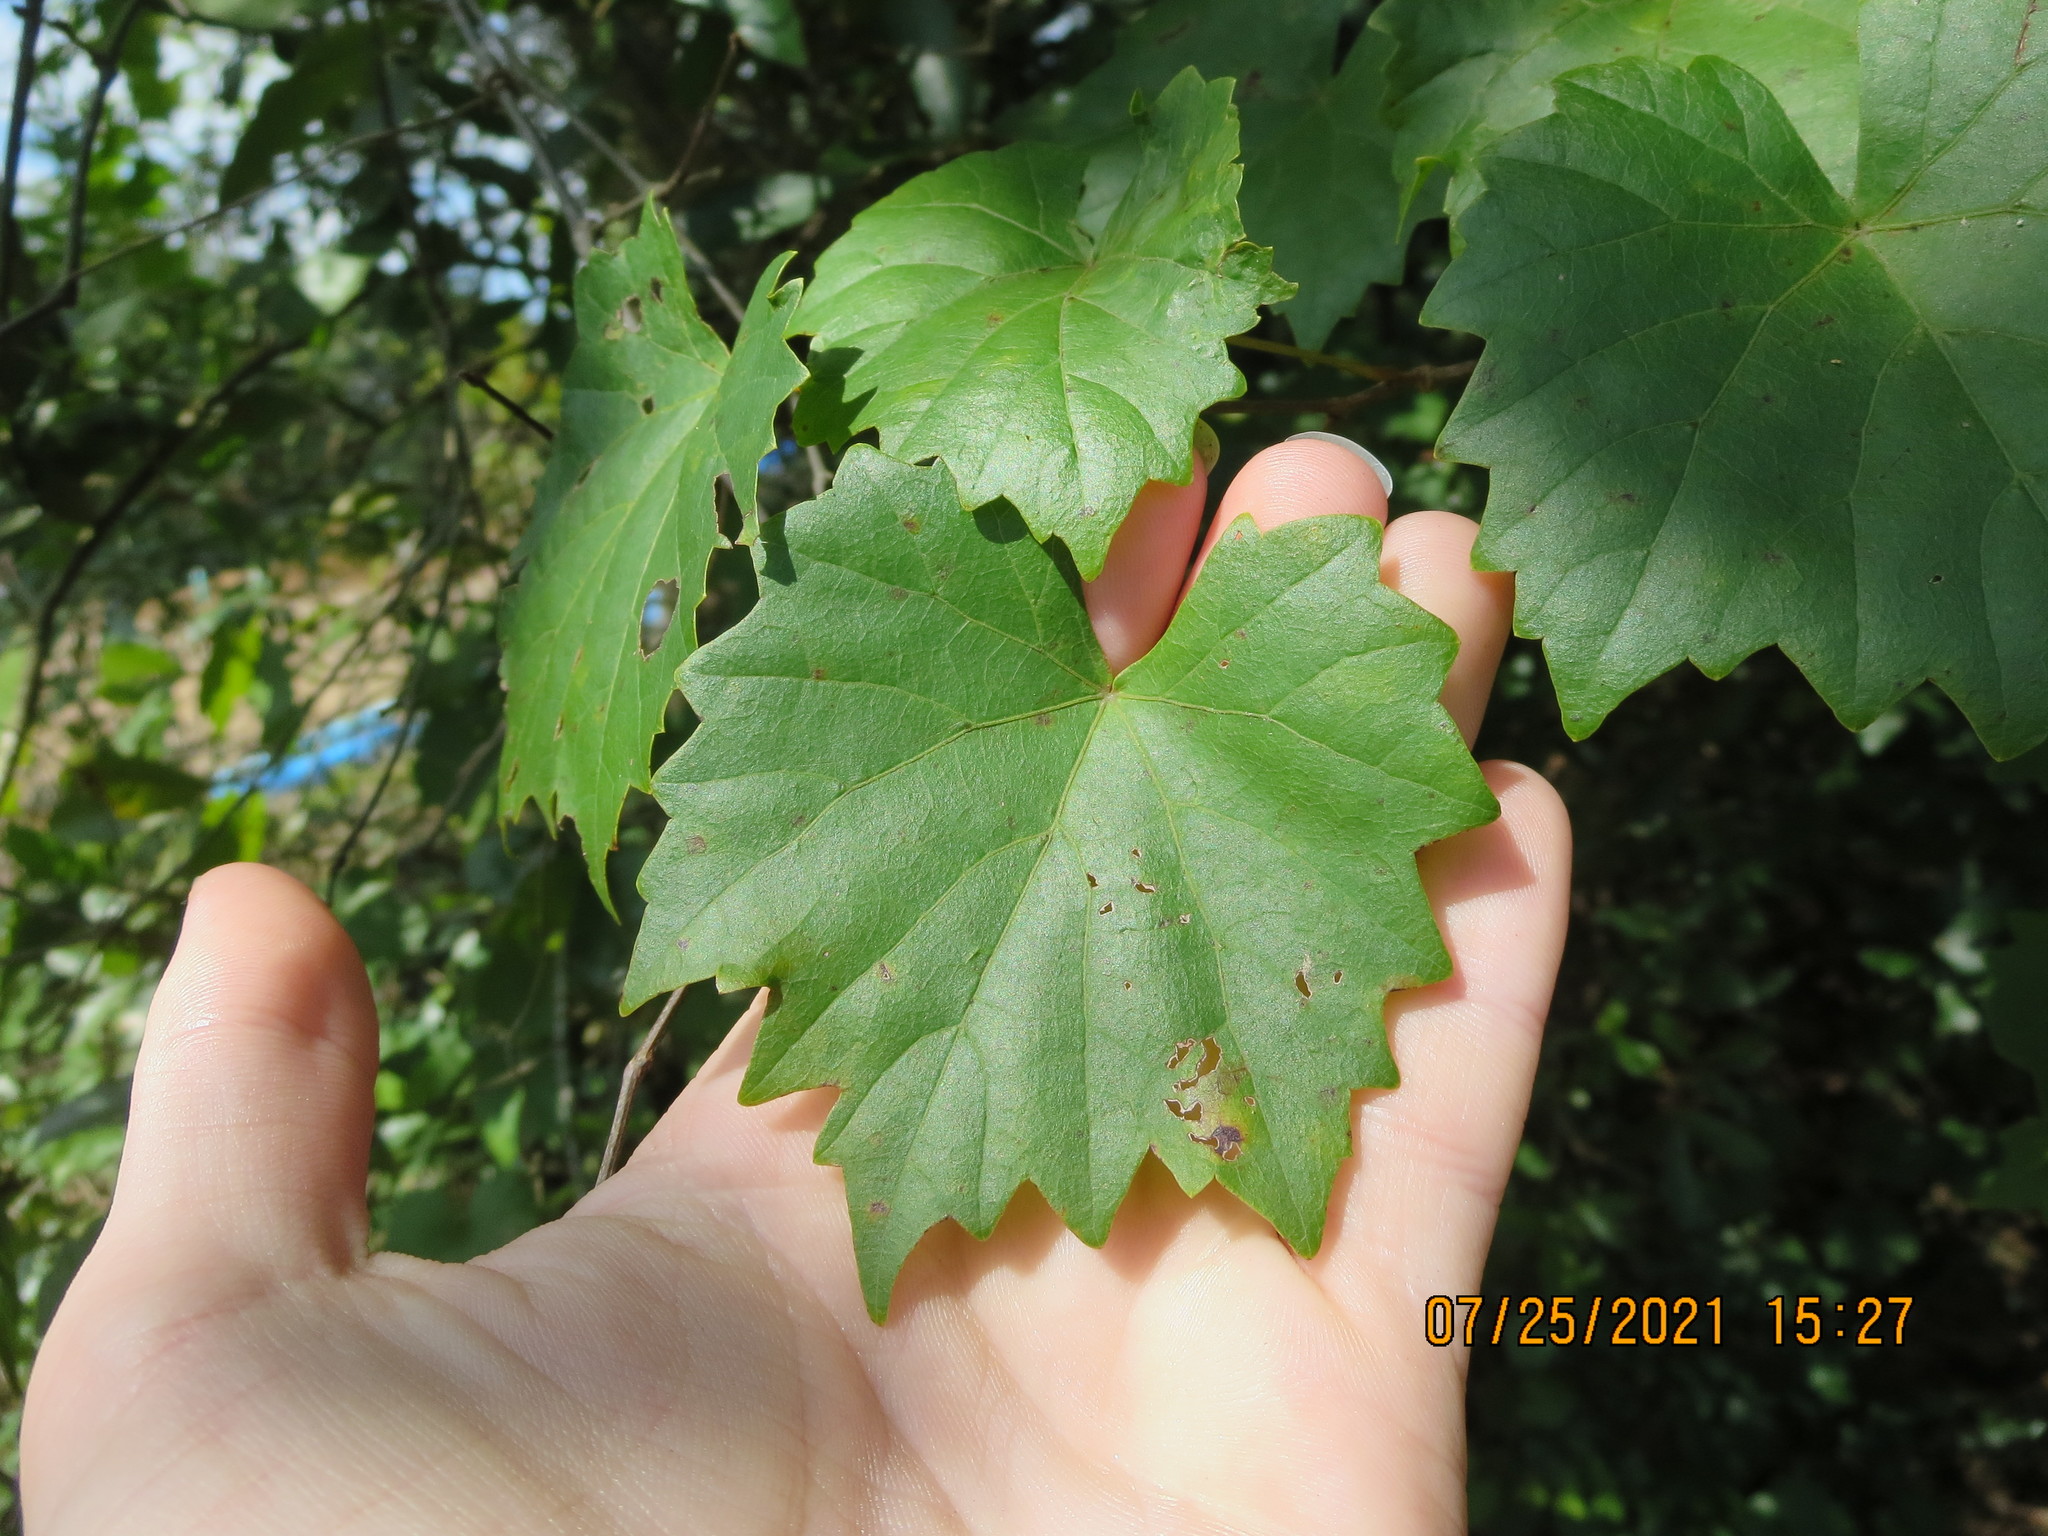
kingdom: Plantae
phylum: Tracheophyta
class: Magnoliopsida
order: Vitales
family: Vitaceae
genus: Vitis
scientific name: Vitis rotundifolia
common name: Muscadine grape
